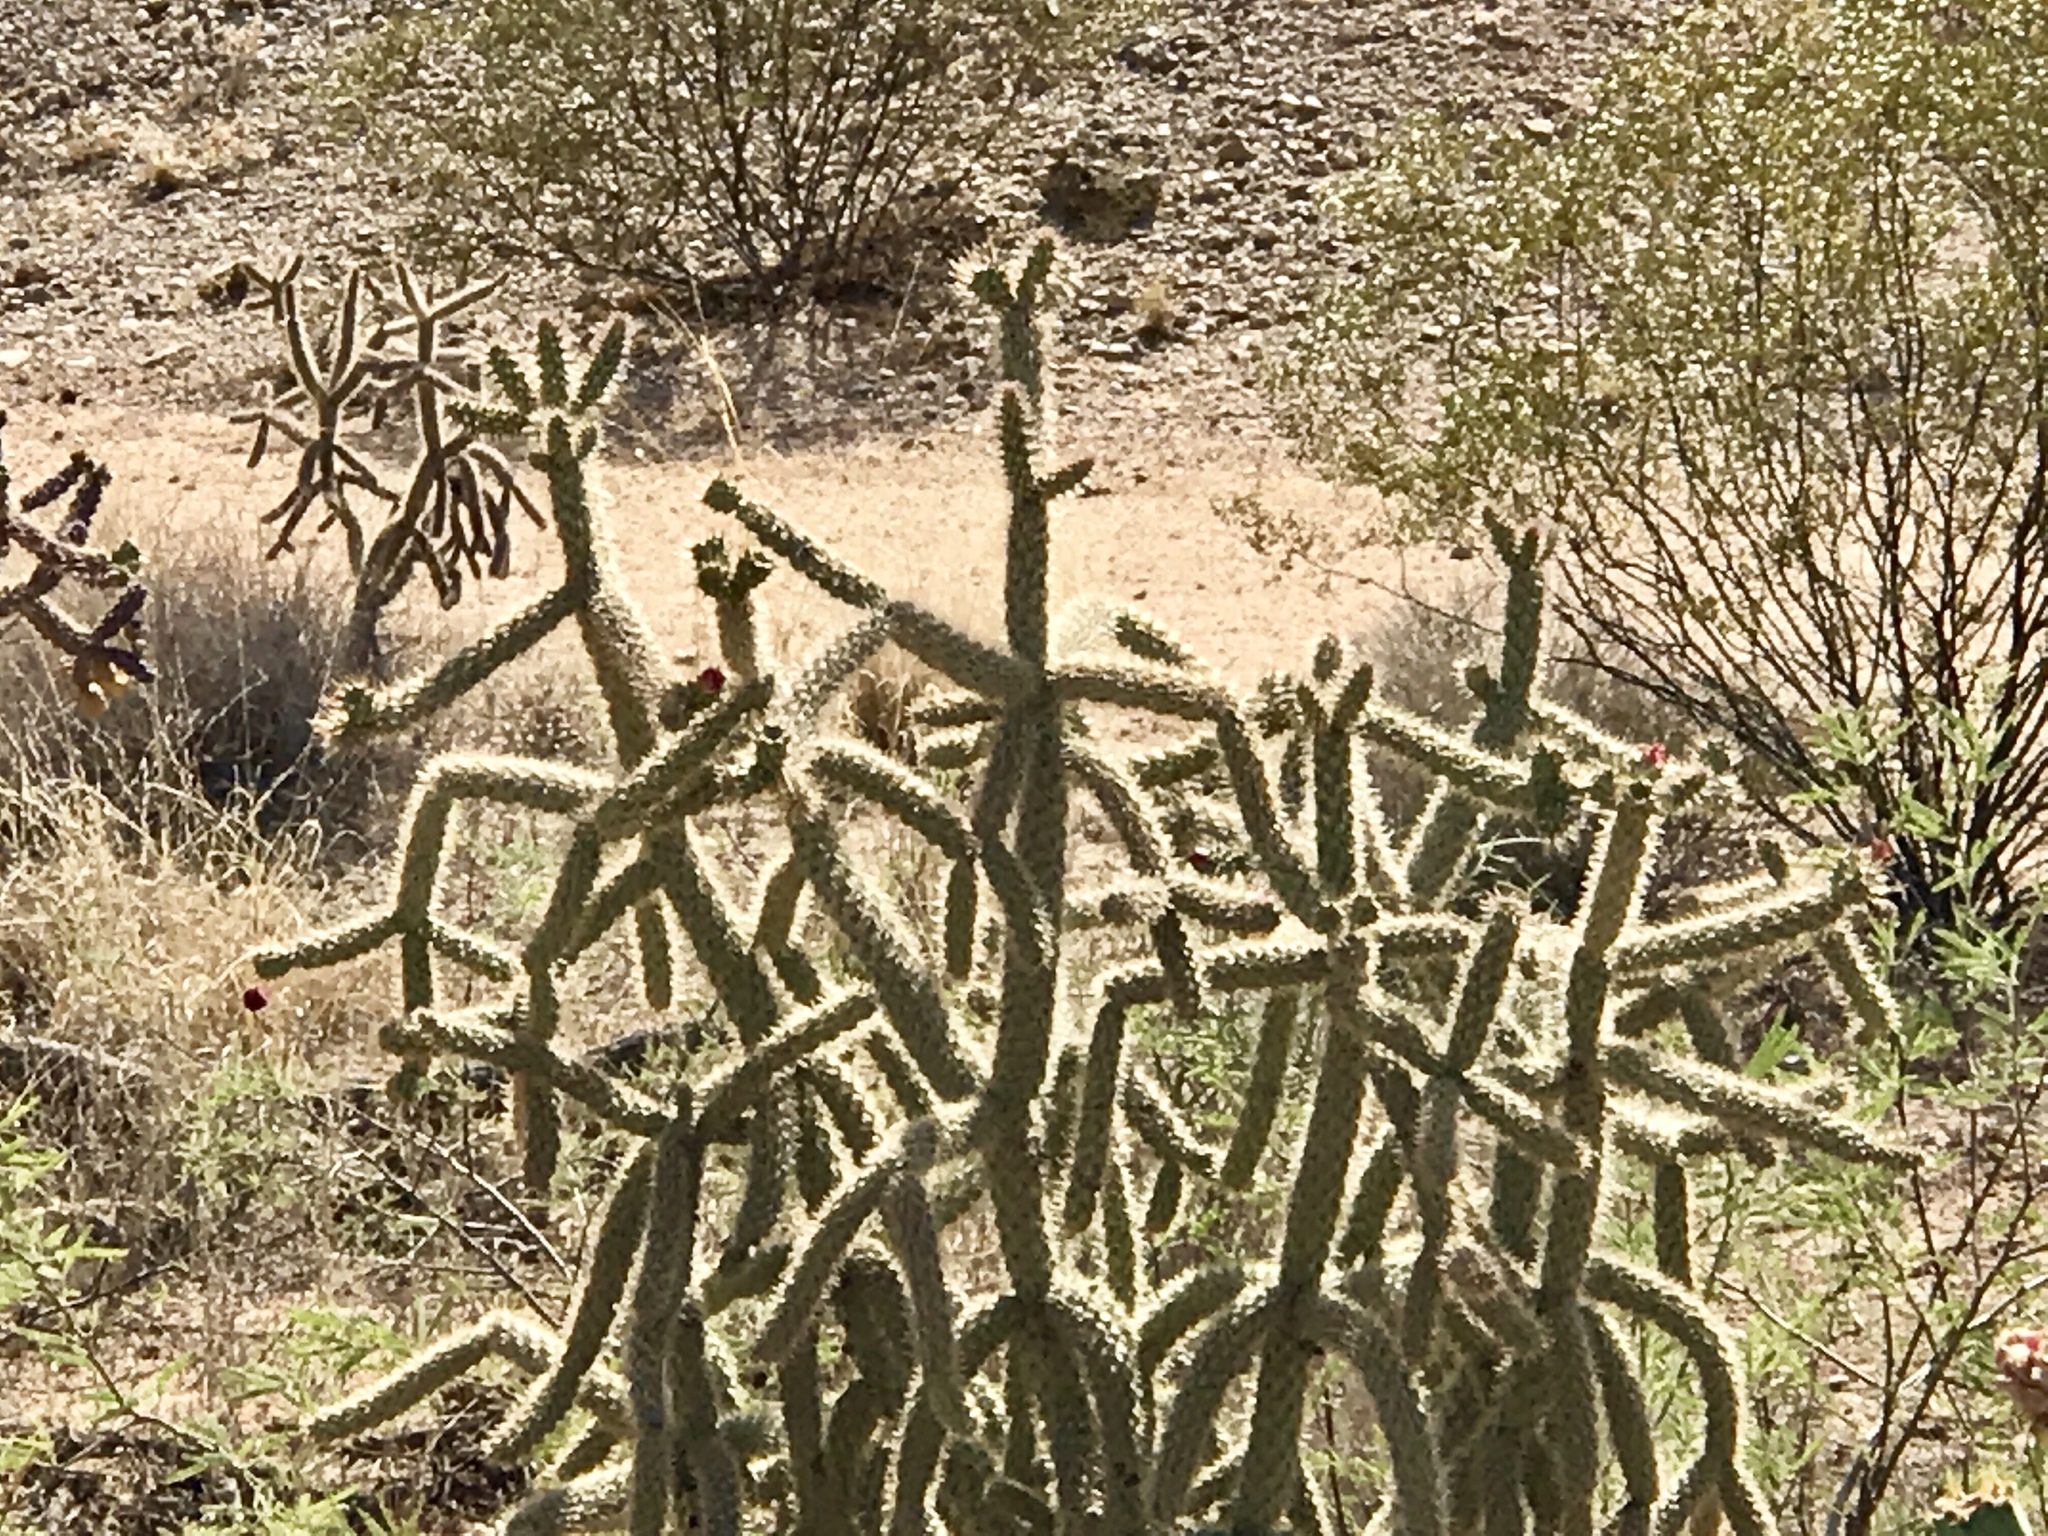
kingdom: Plantae
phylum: Tracheophyta
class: Magnoliopsida
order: Caryophyllales
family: Cactaceae
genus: Cylindropuntia
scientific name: Cylindropuntia imbricata
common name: Candelabrum cactus
